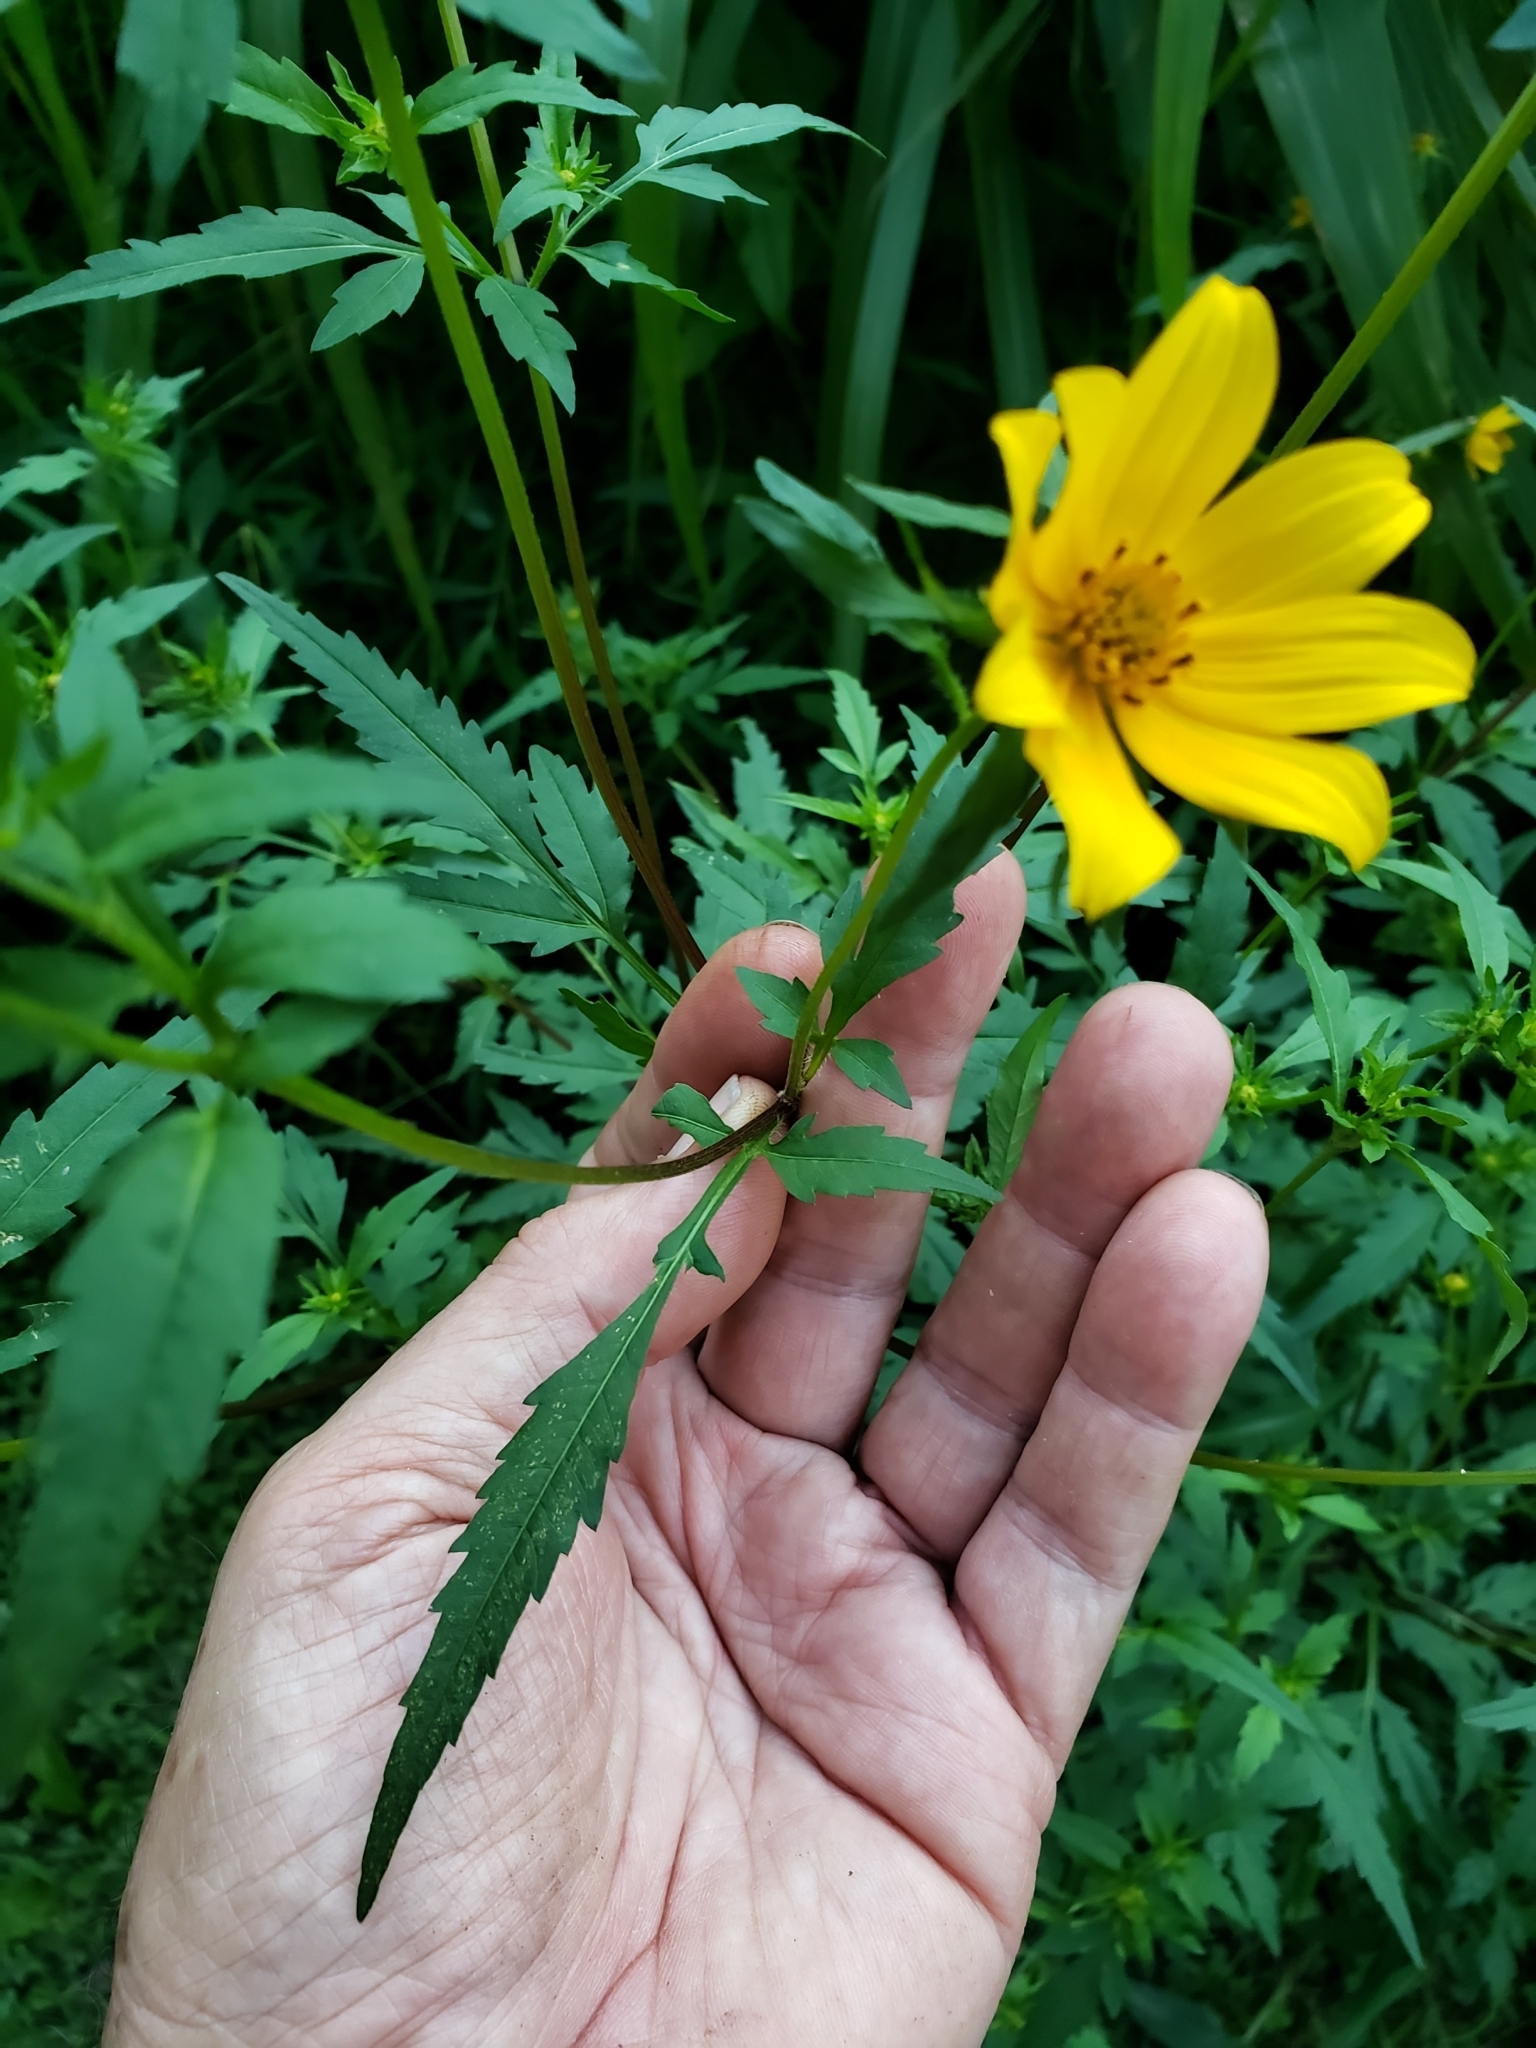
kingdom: Plantae
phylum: Tracheophyta
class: Magnoliopsida
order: Asterales
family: Asteraceae
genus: Bidens
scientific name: Bidens aristosa
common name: Western tickseed
